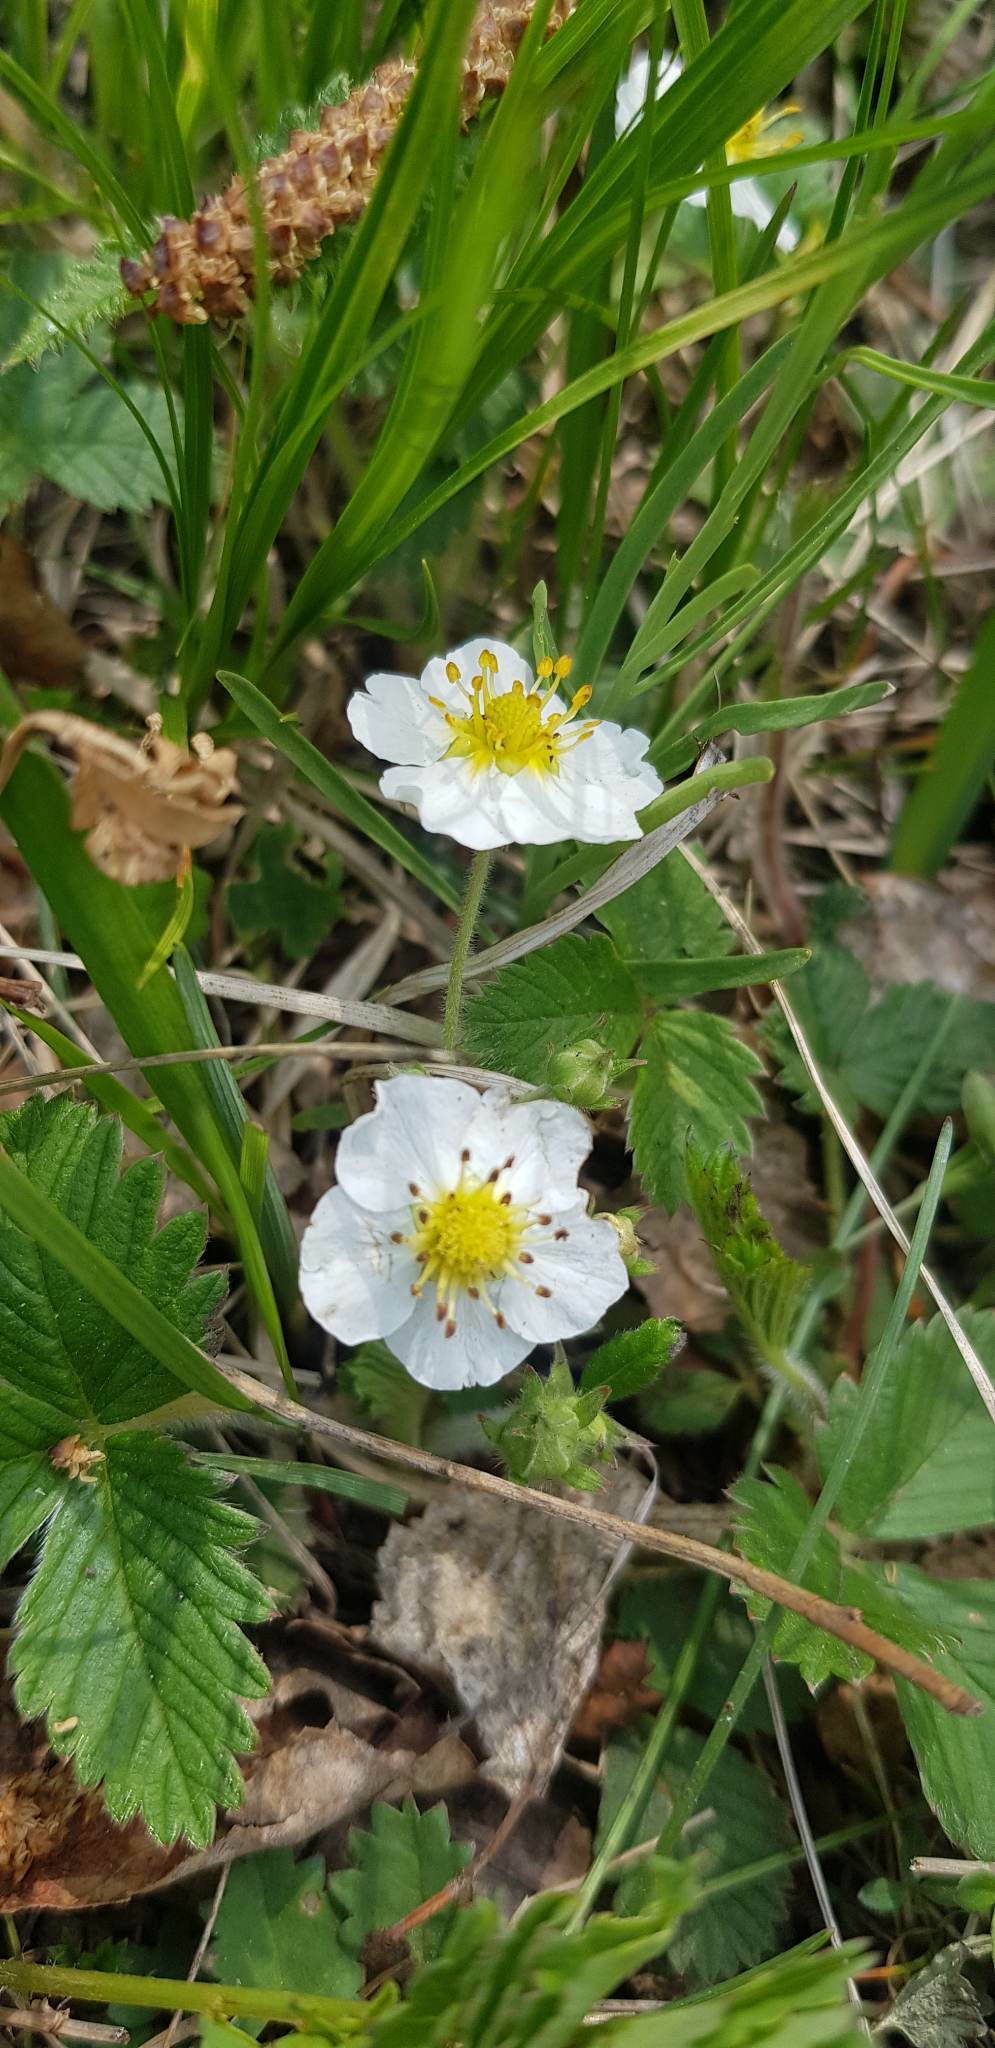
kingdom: Plantae
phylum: Tracheophyta
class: Magnoliopsida
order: Rosales
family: Rosaceae
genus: Fragaria
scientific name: Fragaria orientalis
